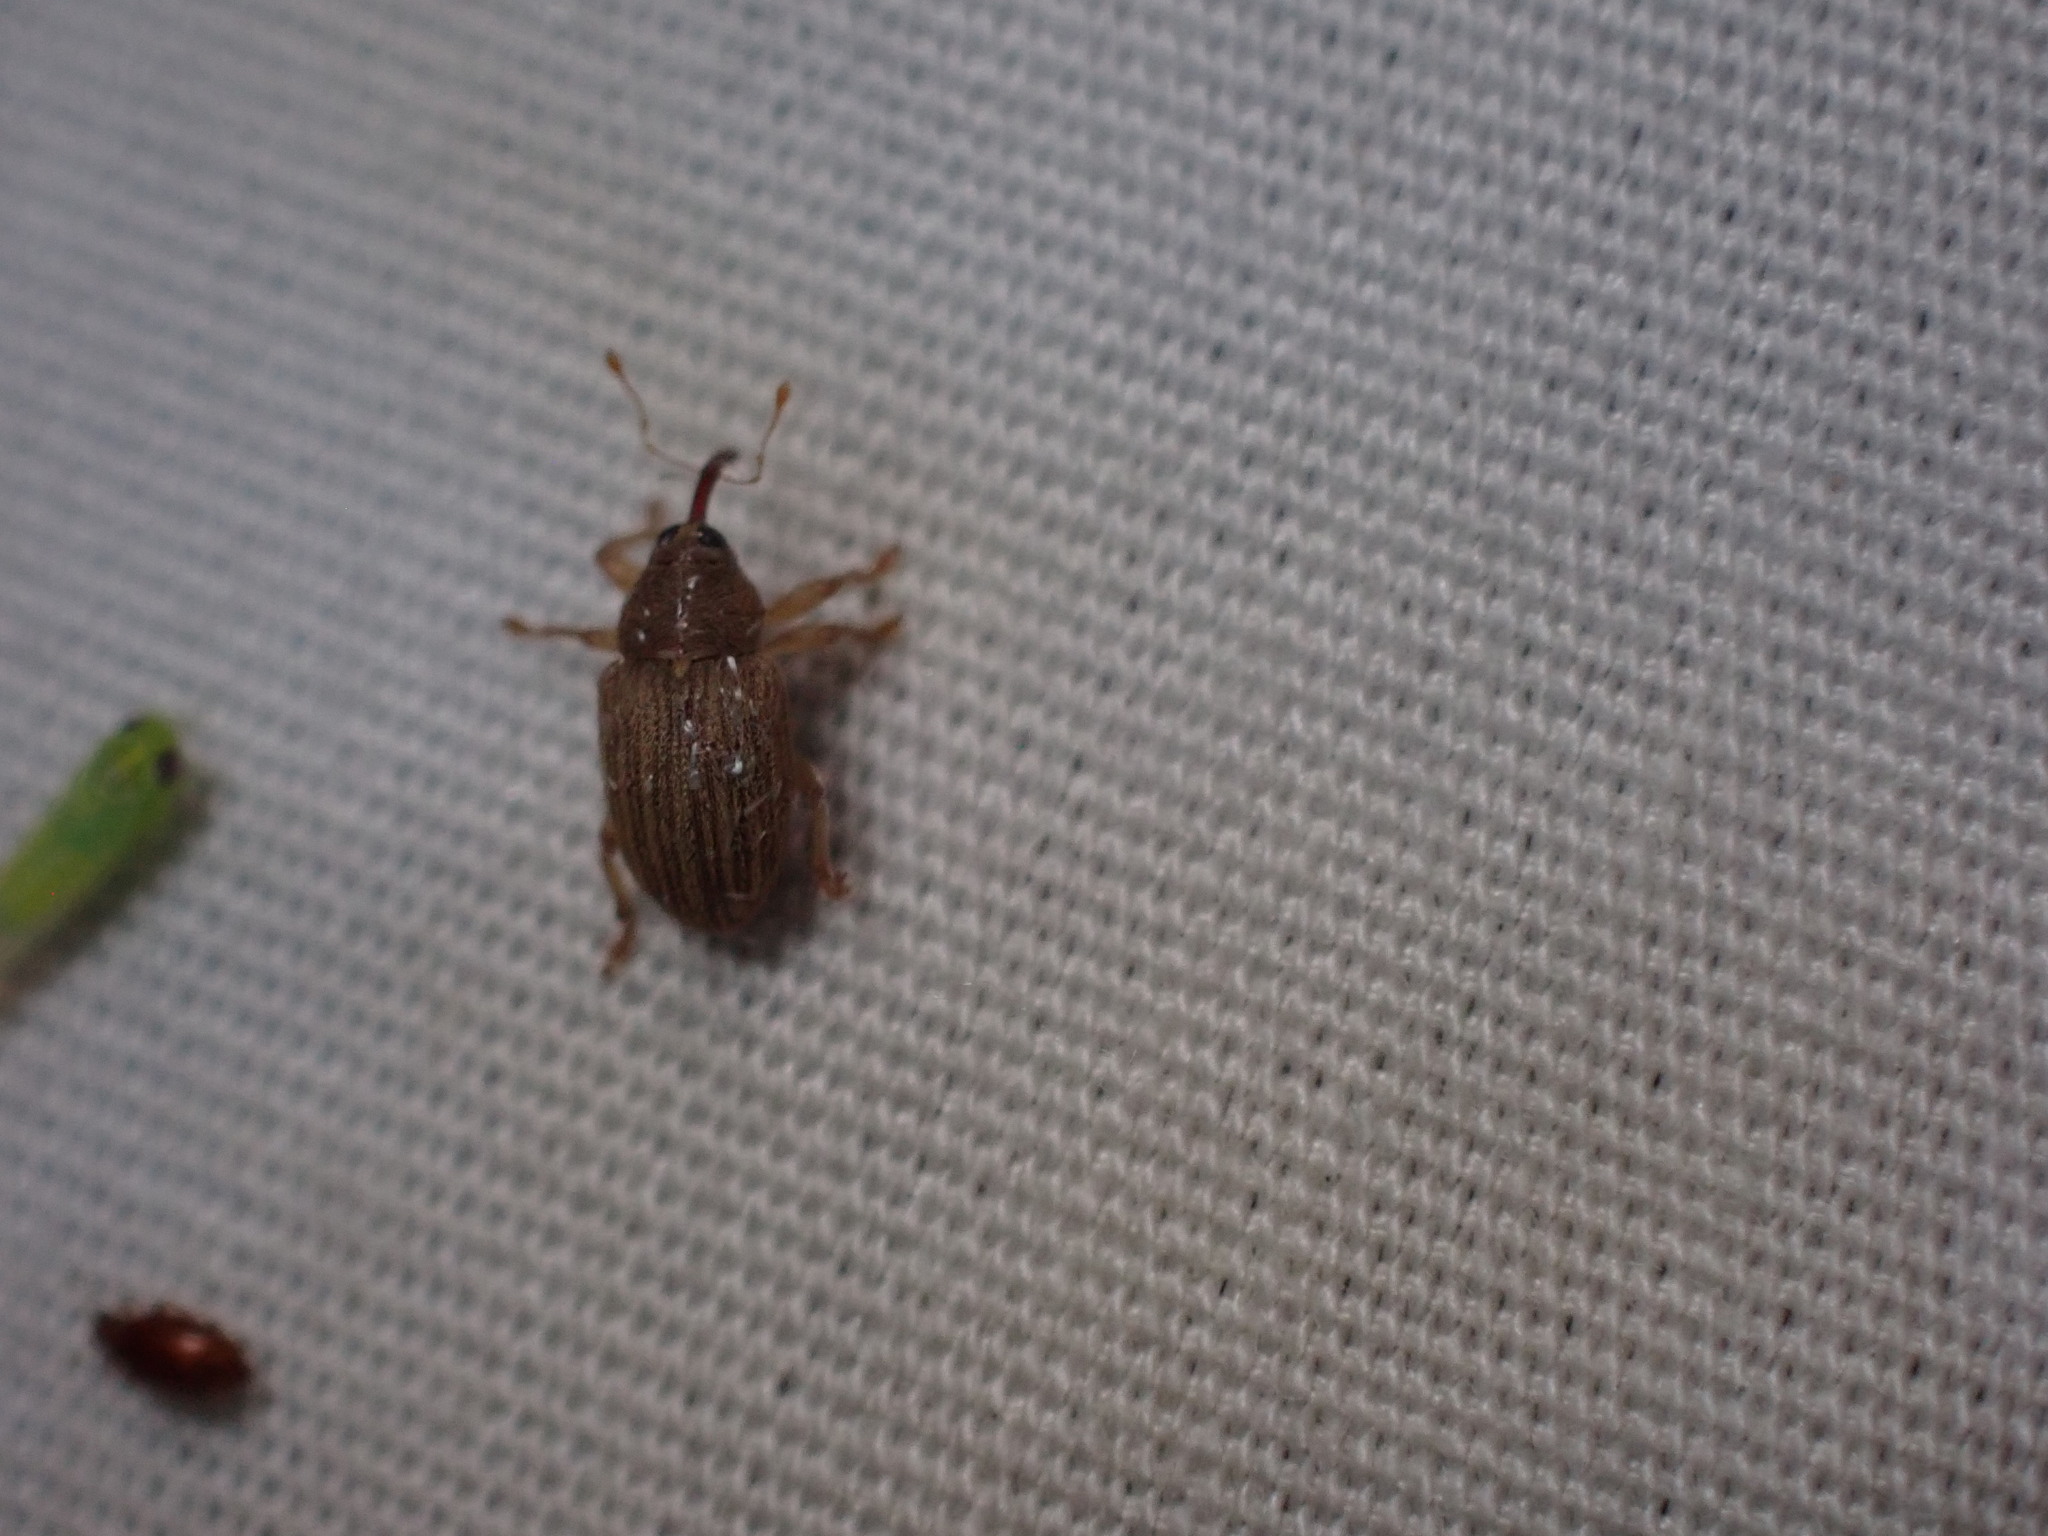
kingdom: Animalia
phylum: Arthropoda
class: Insecta
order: Coleoptera
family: Curculionidae
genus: Lignyodes
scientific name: Lignyodes helvolus
